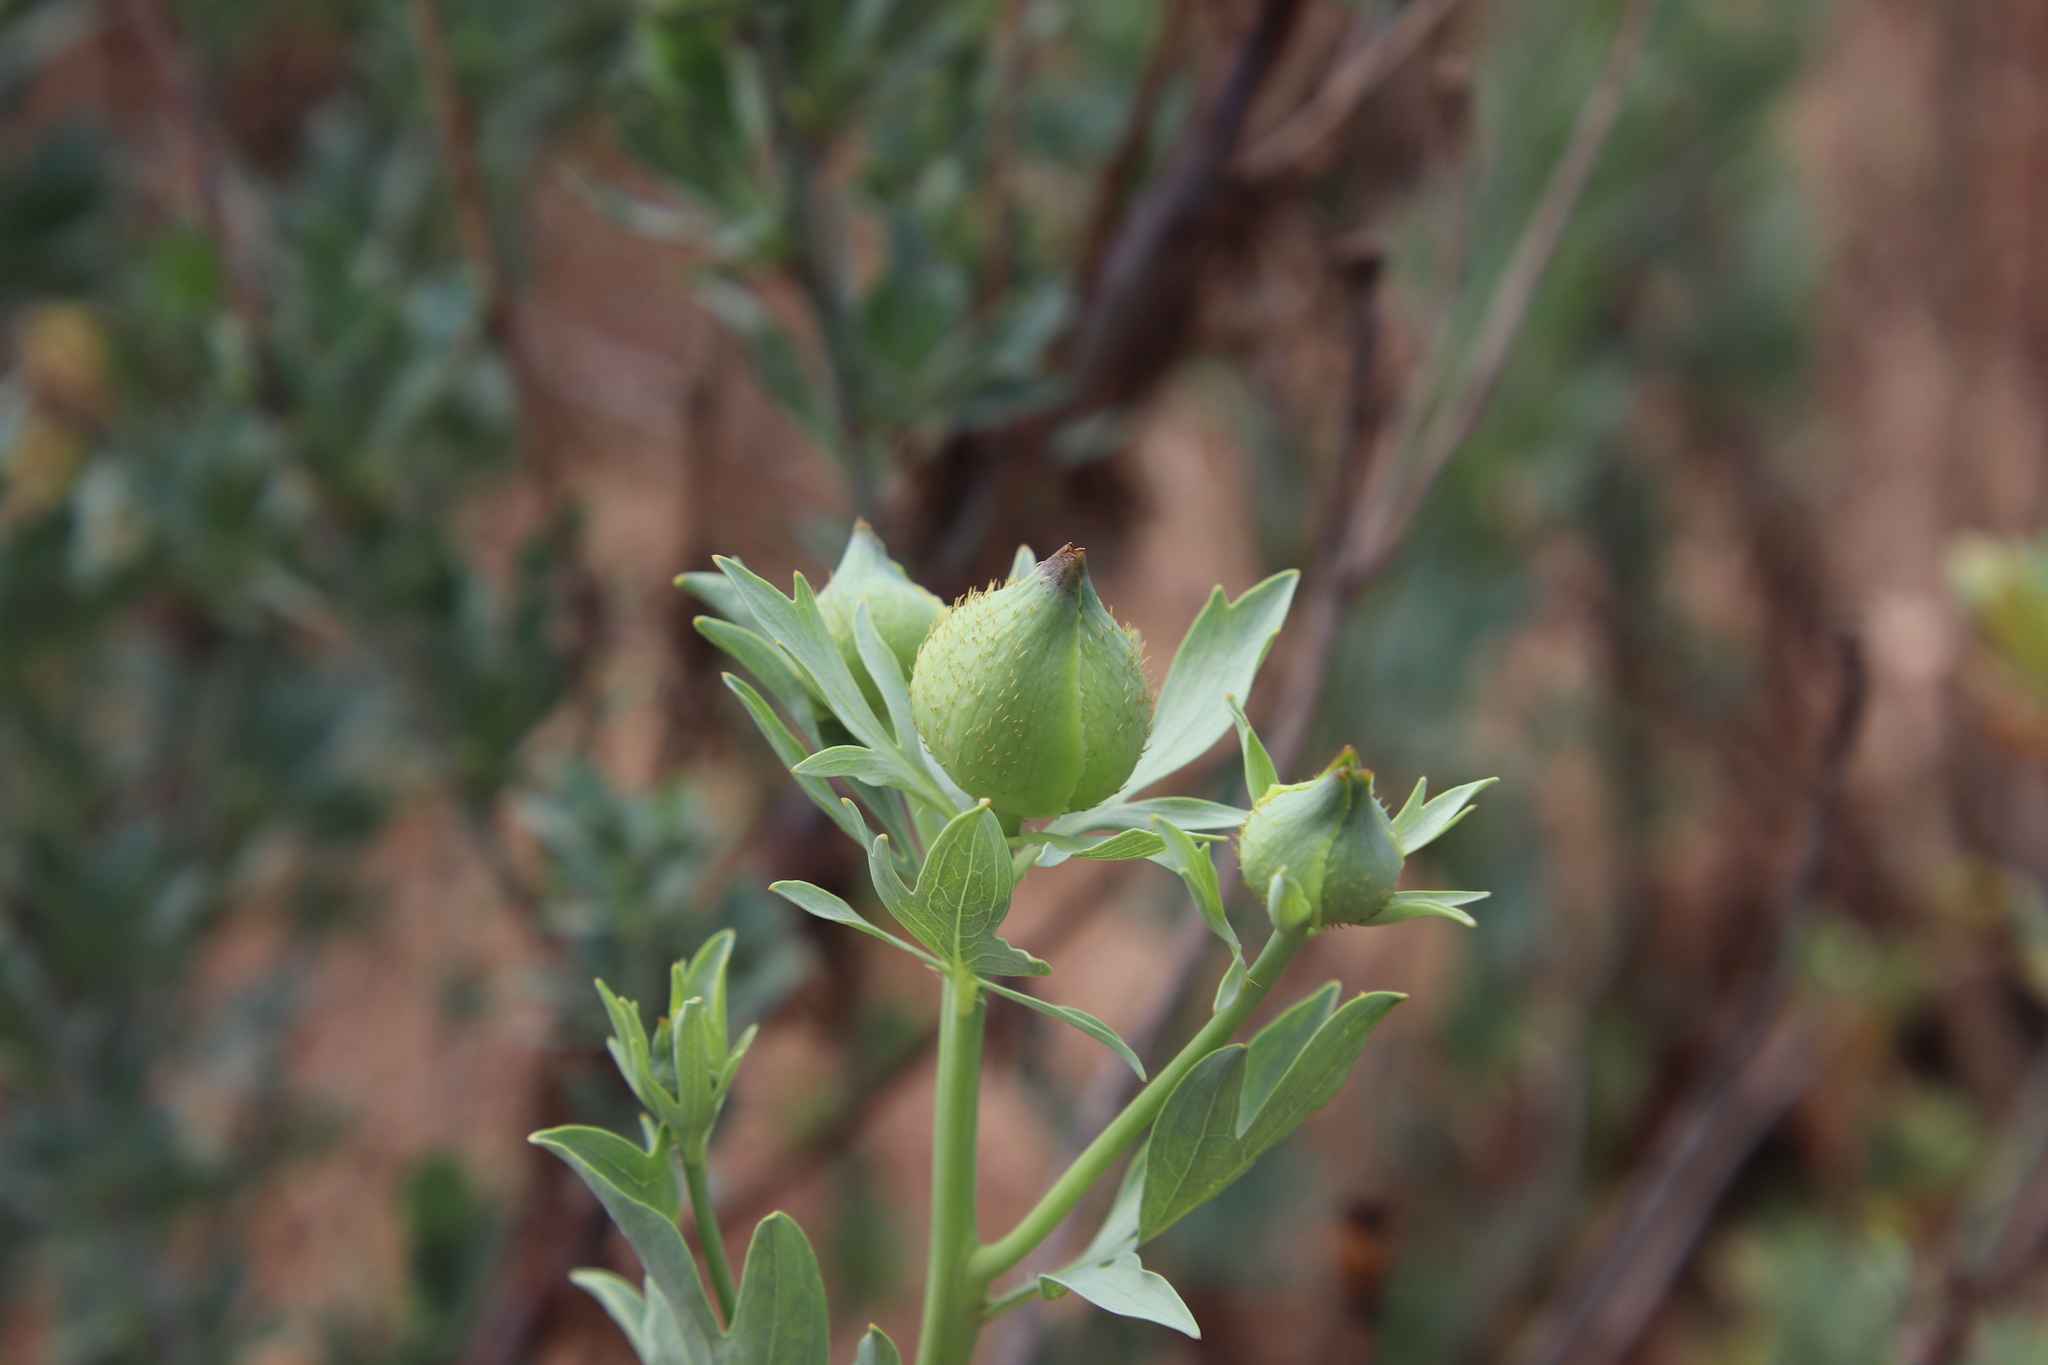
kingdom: Plantae
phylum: Tracheophyta
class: Magnoliopsida
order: Ranunculales
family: Papaveraceae
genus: Romneya
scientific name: Romneya trichocalyx
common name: Hairy matilija-poppy
